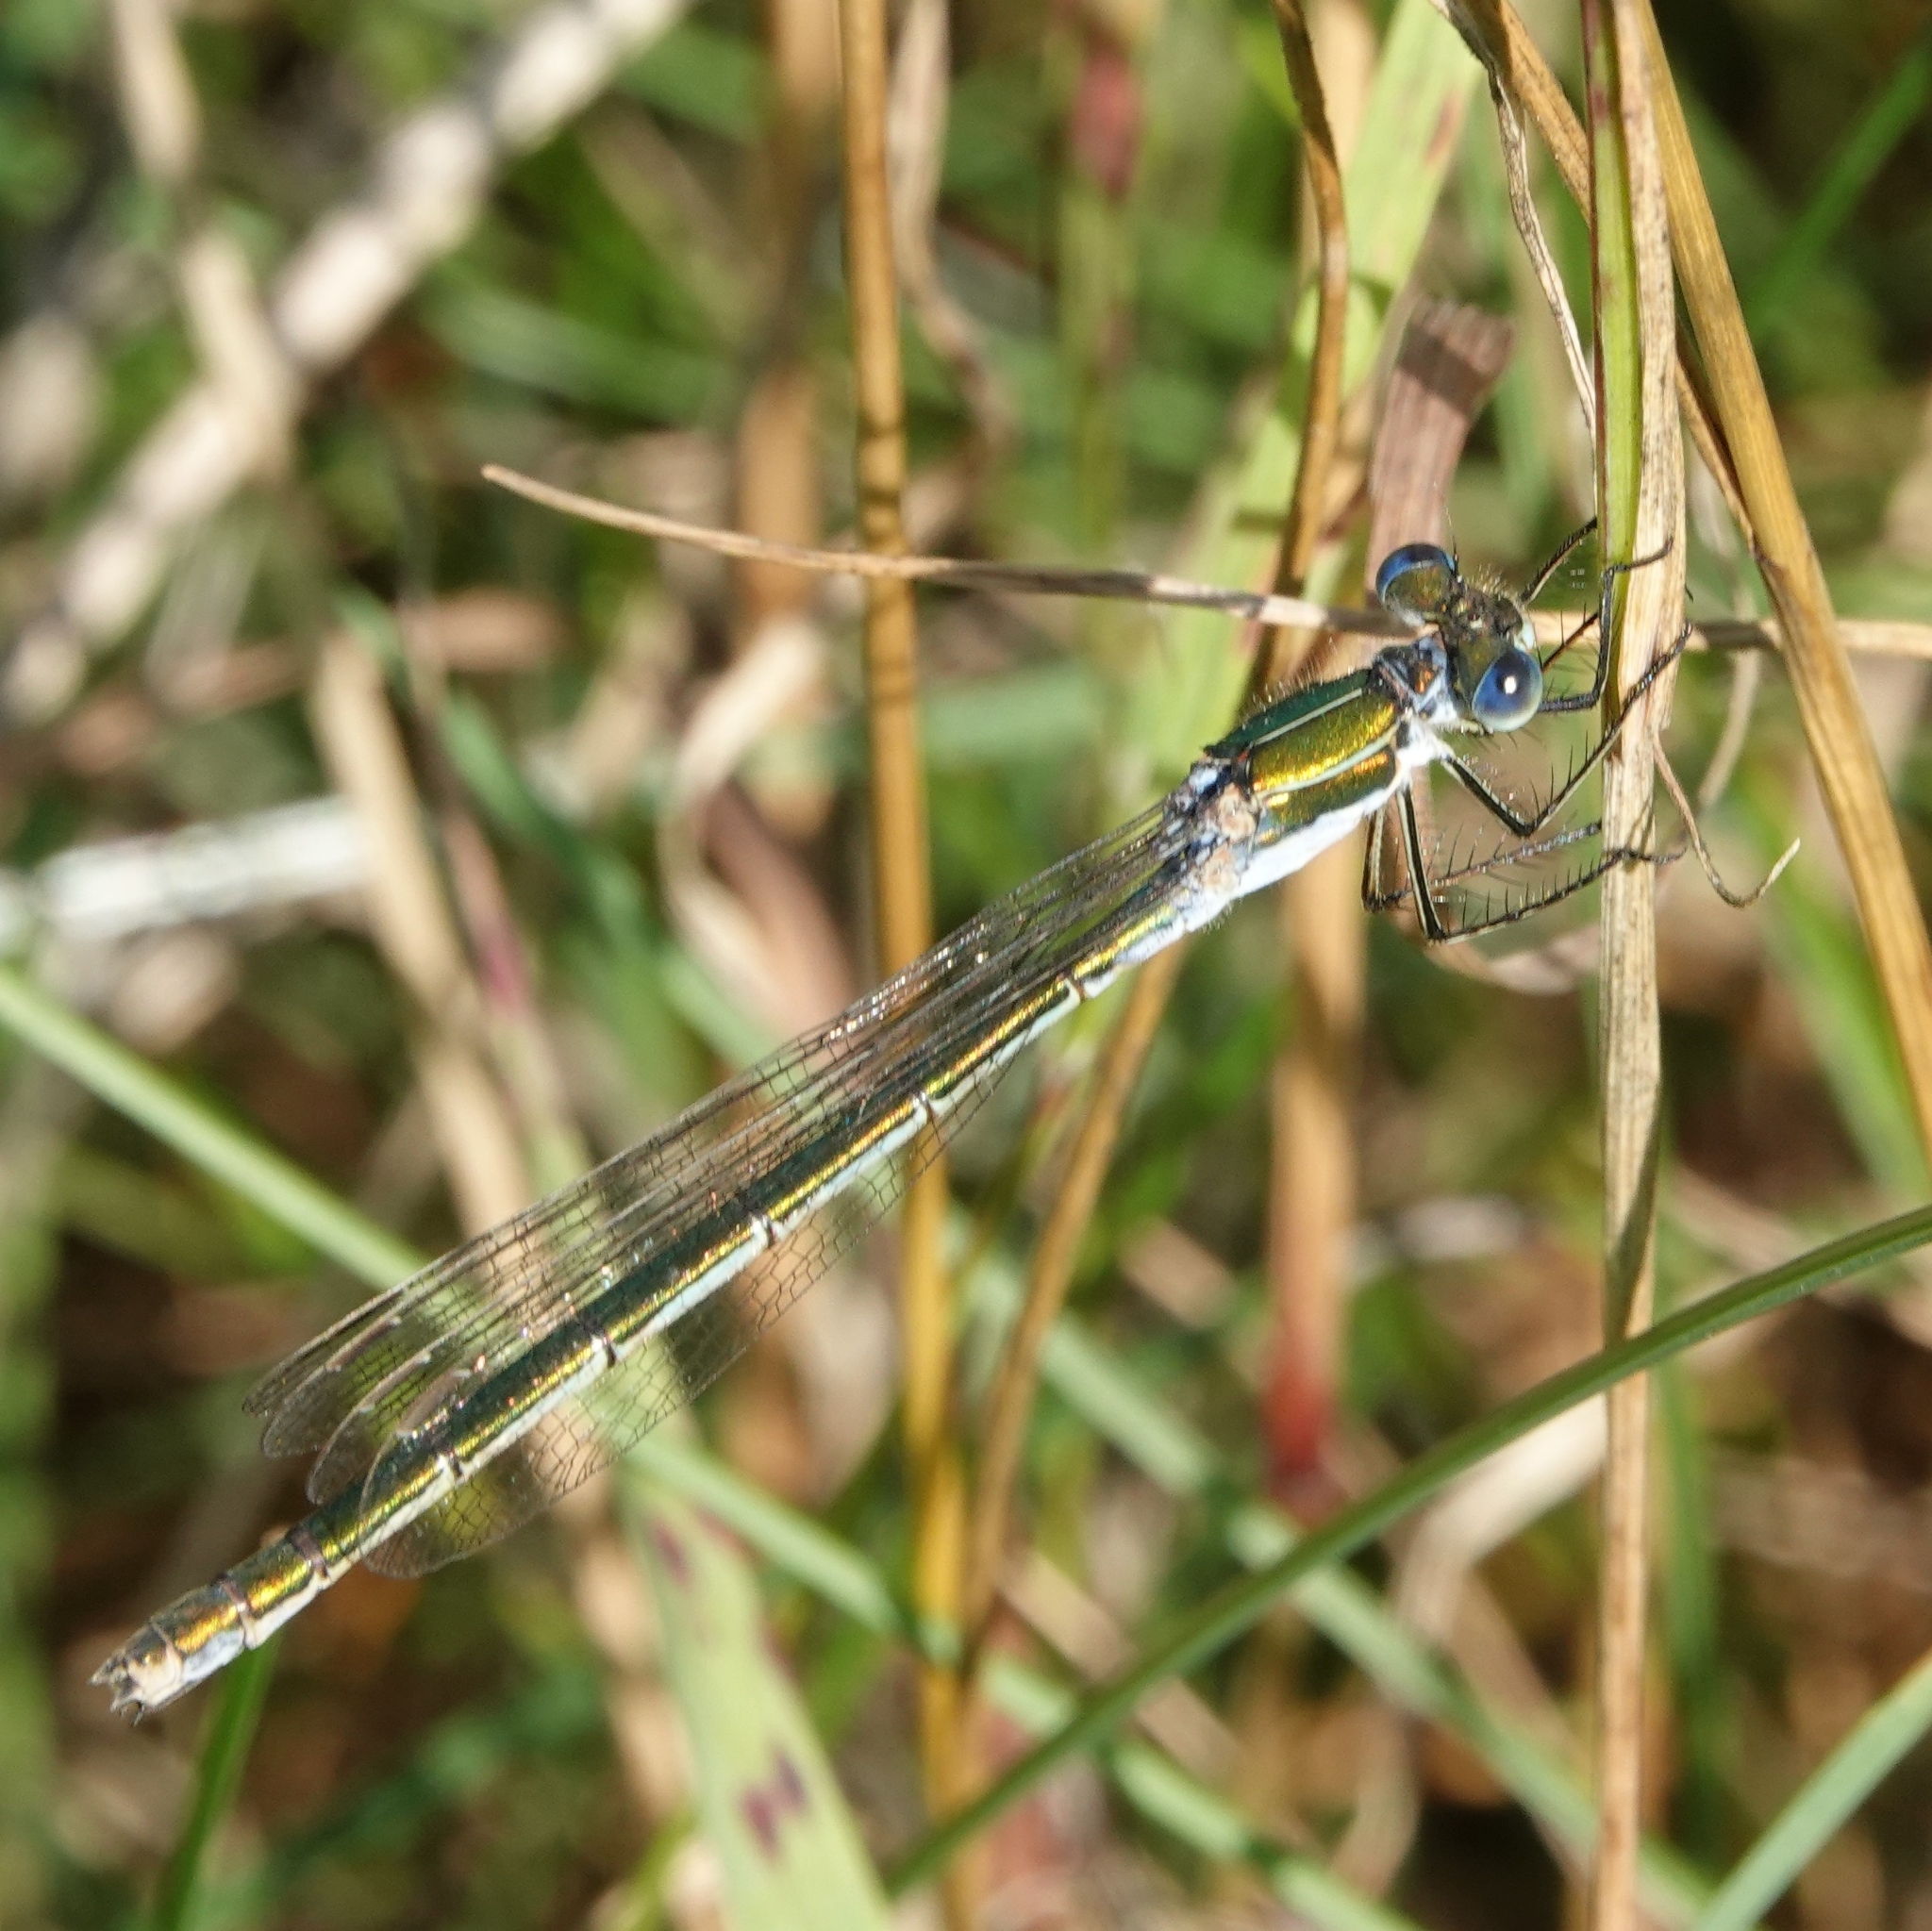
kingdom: Animalia
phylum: Arthropoda
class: Insecta
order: Odonata
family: Lestidae
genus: Lestes
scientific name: Lestes sponsa
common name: Common spreadwing
